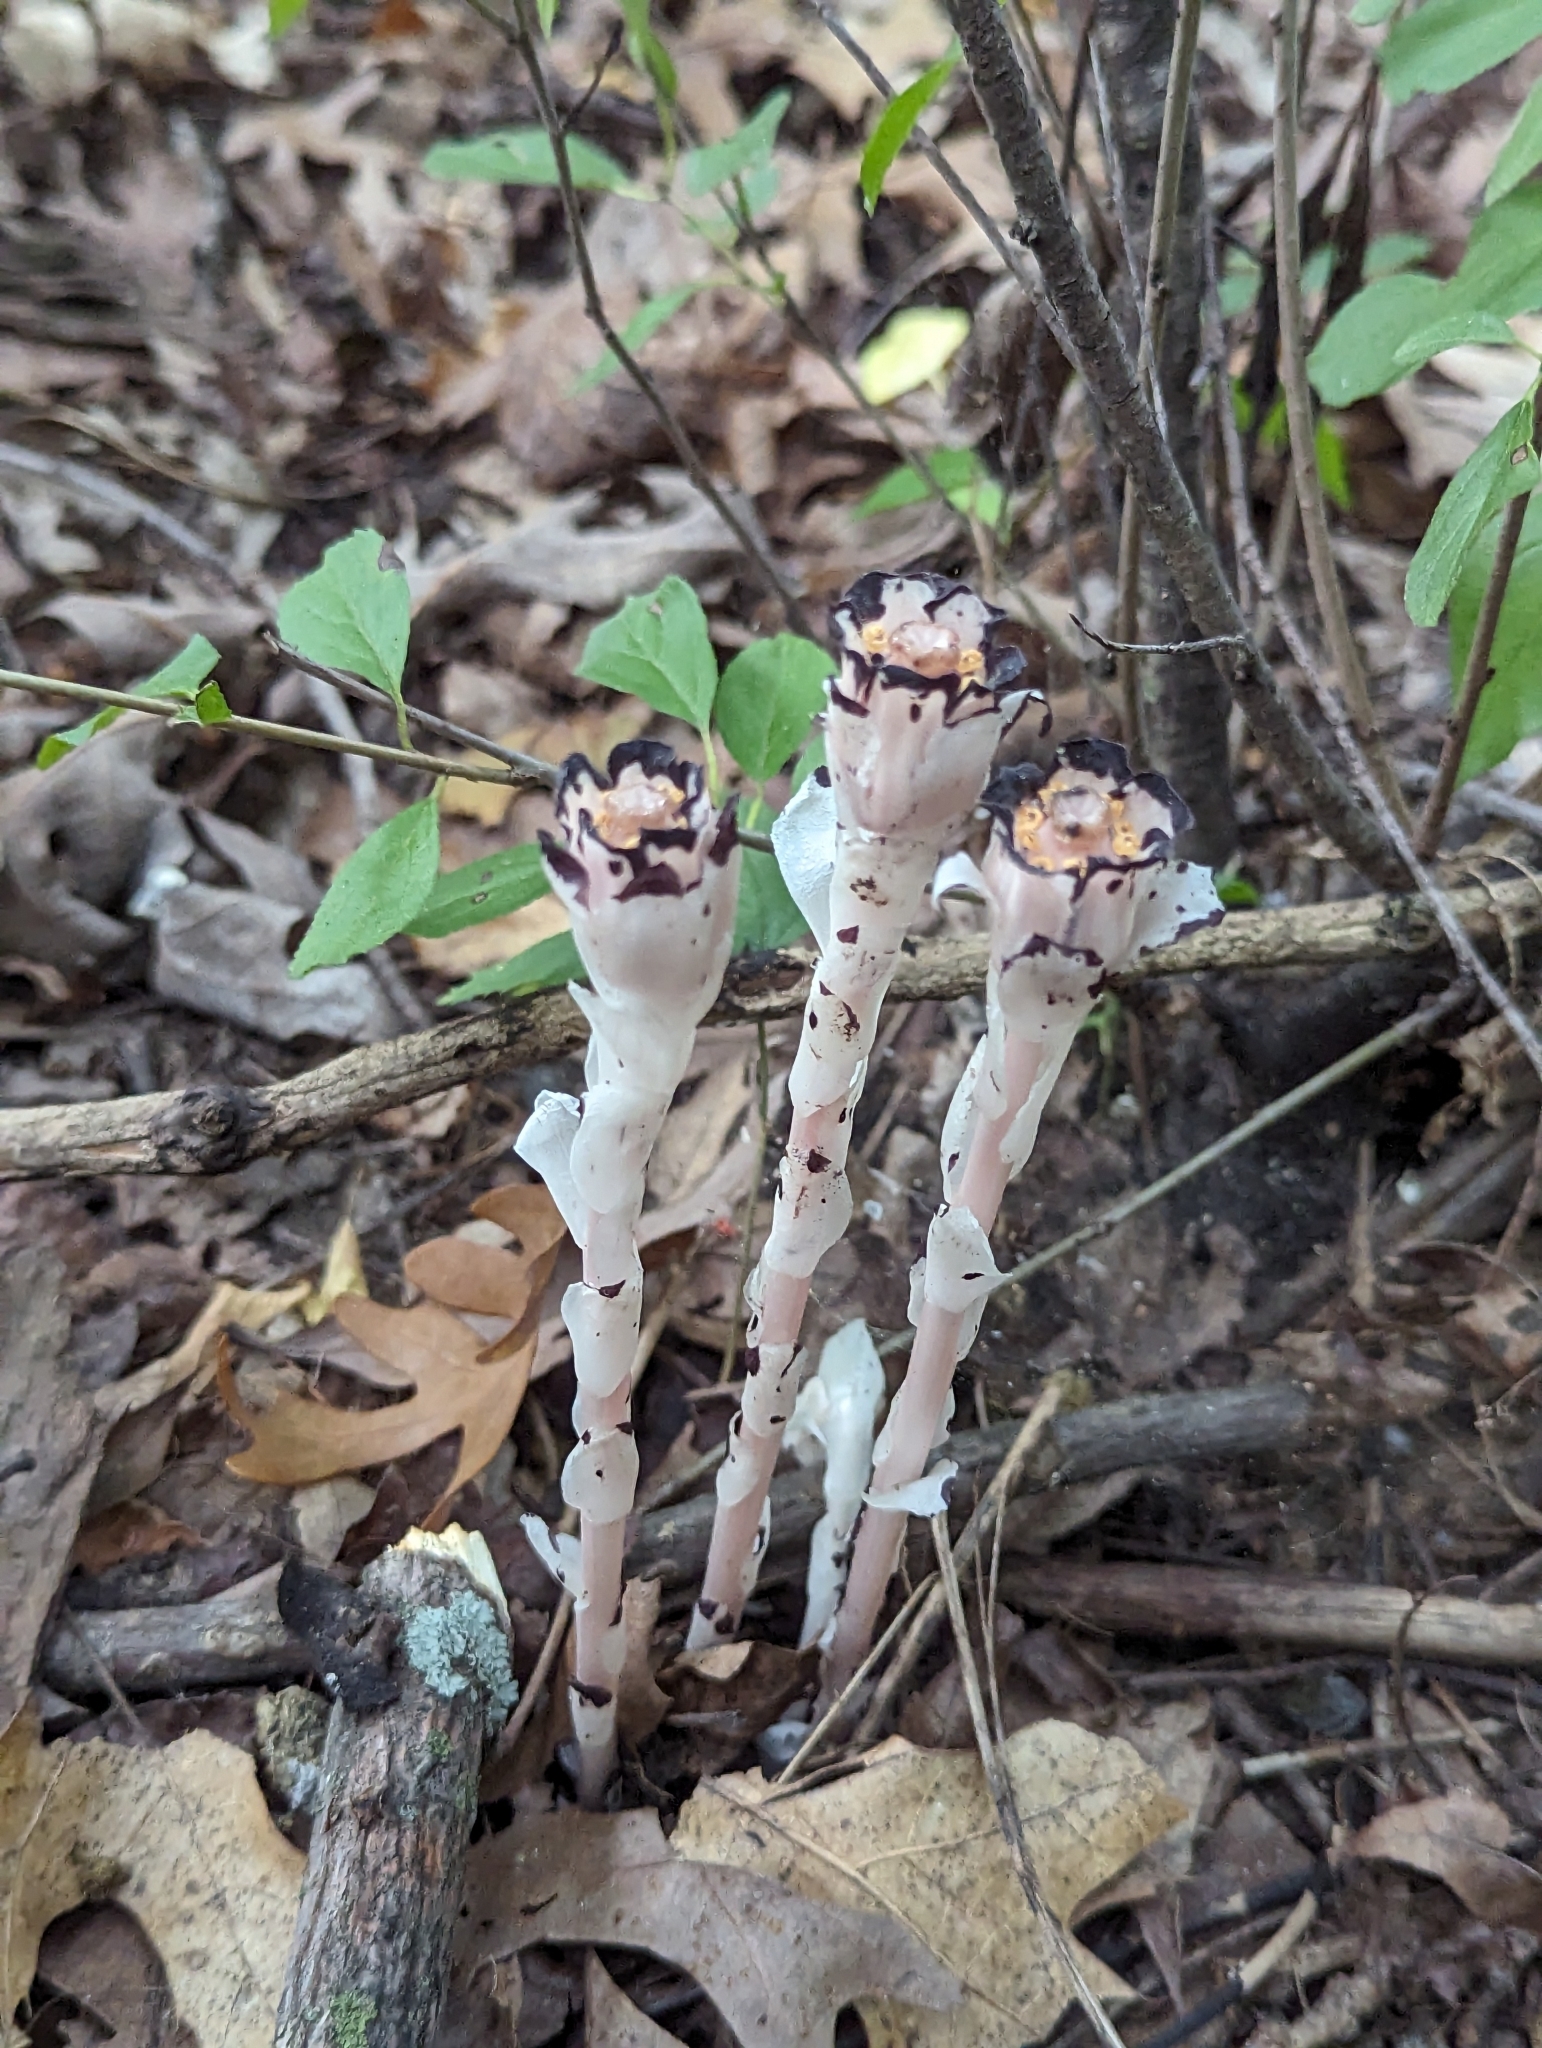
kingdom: Plantae
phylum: Tracheophyta
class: Magnoliopsida
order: Ericales
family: Ericaceae
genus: Monotropa
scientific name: Monotropa uniflora
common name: Convulsion root
